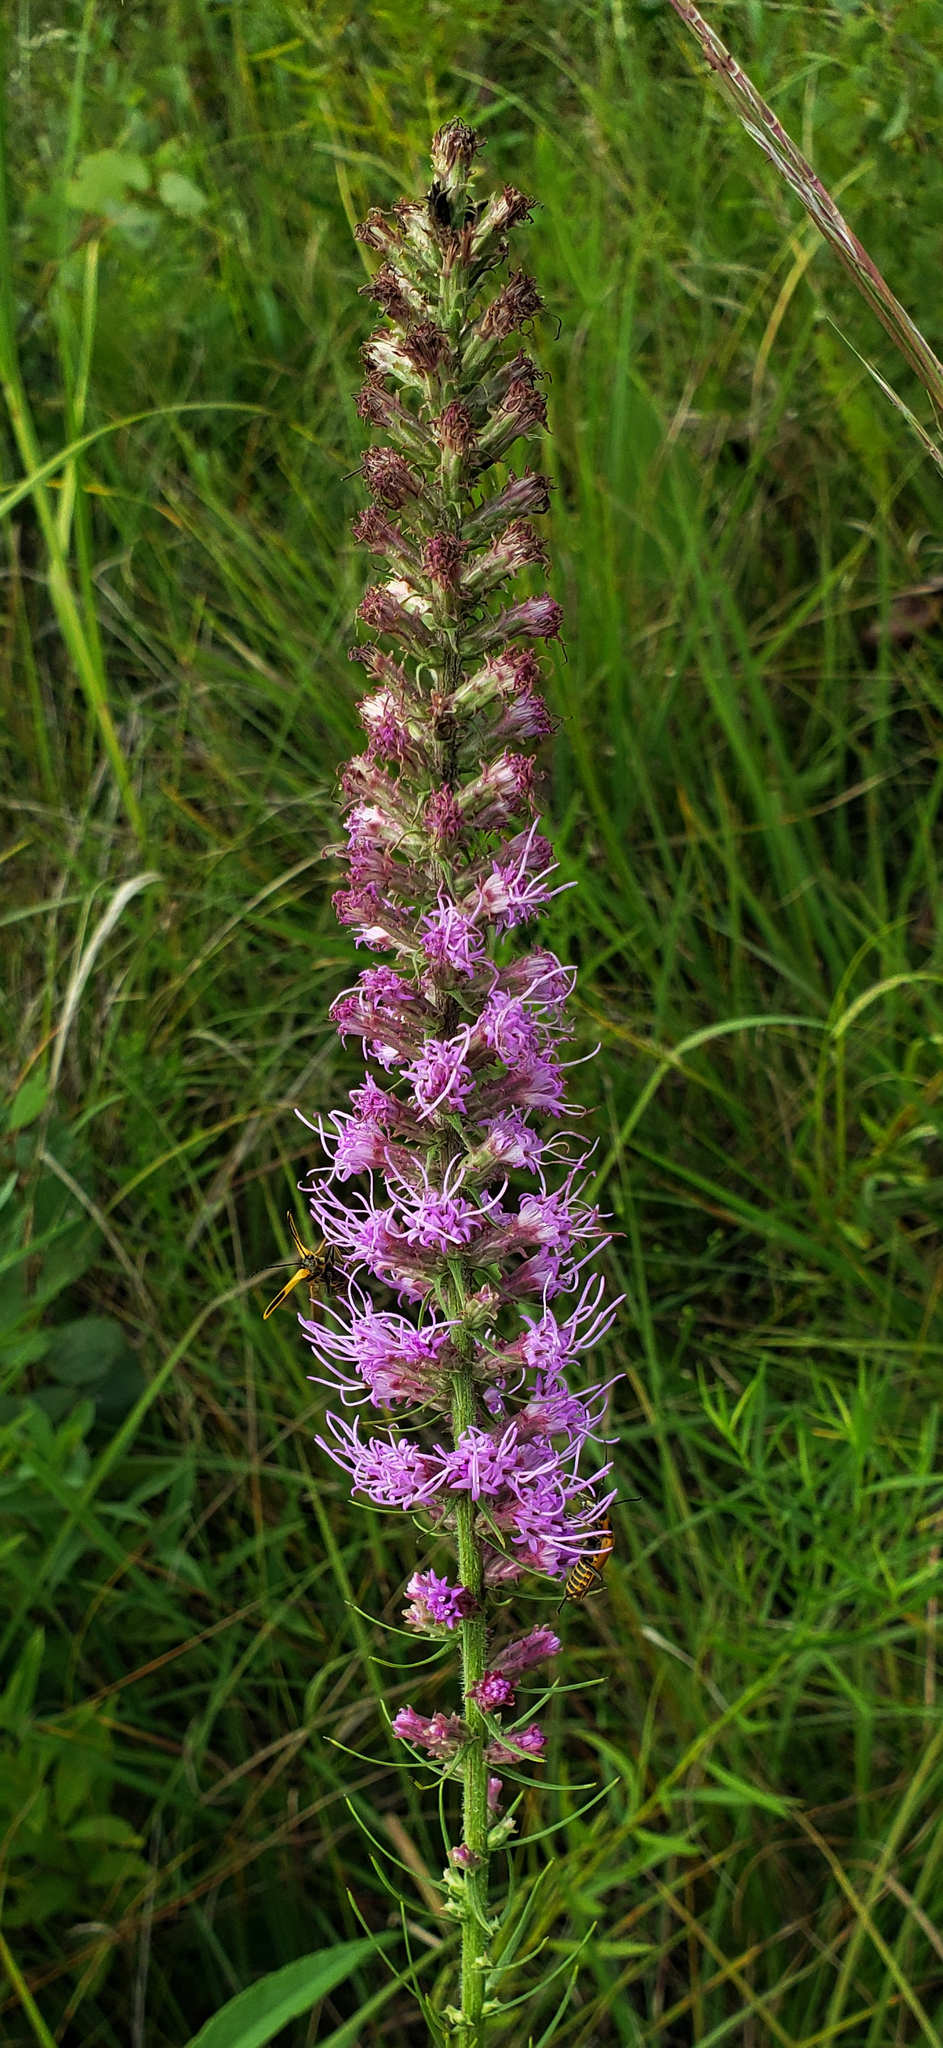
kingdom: Plantae
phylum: Tracheophyta
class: Magnoliopsida
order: Asterales
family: Asteraceae
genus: Liatris
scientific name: Liatris pycnostachya
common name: Cattail gayfeather
